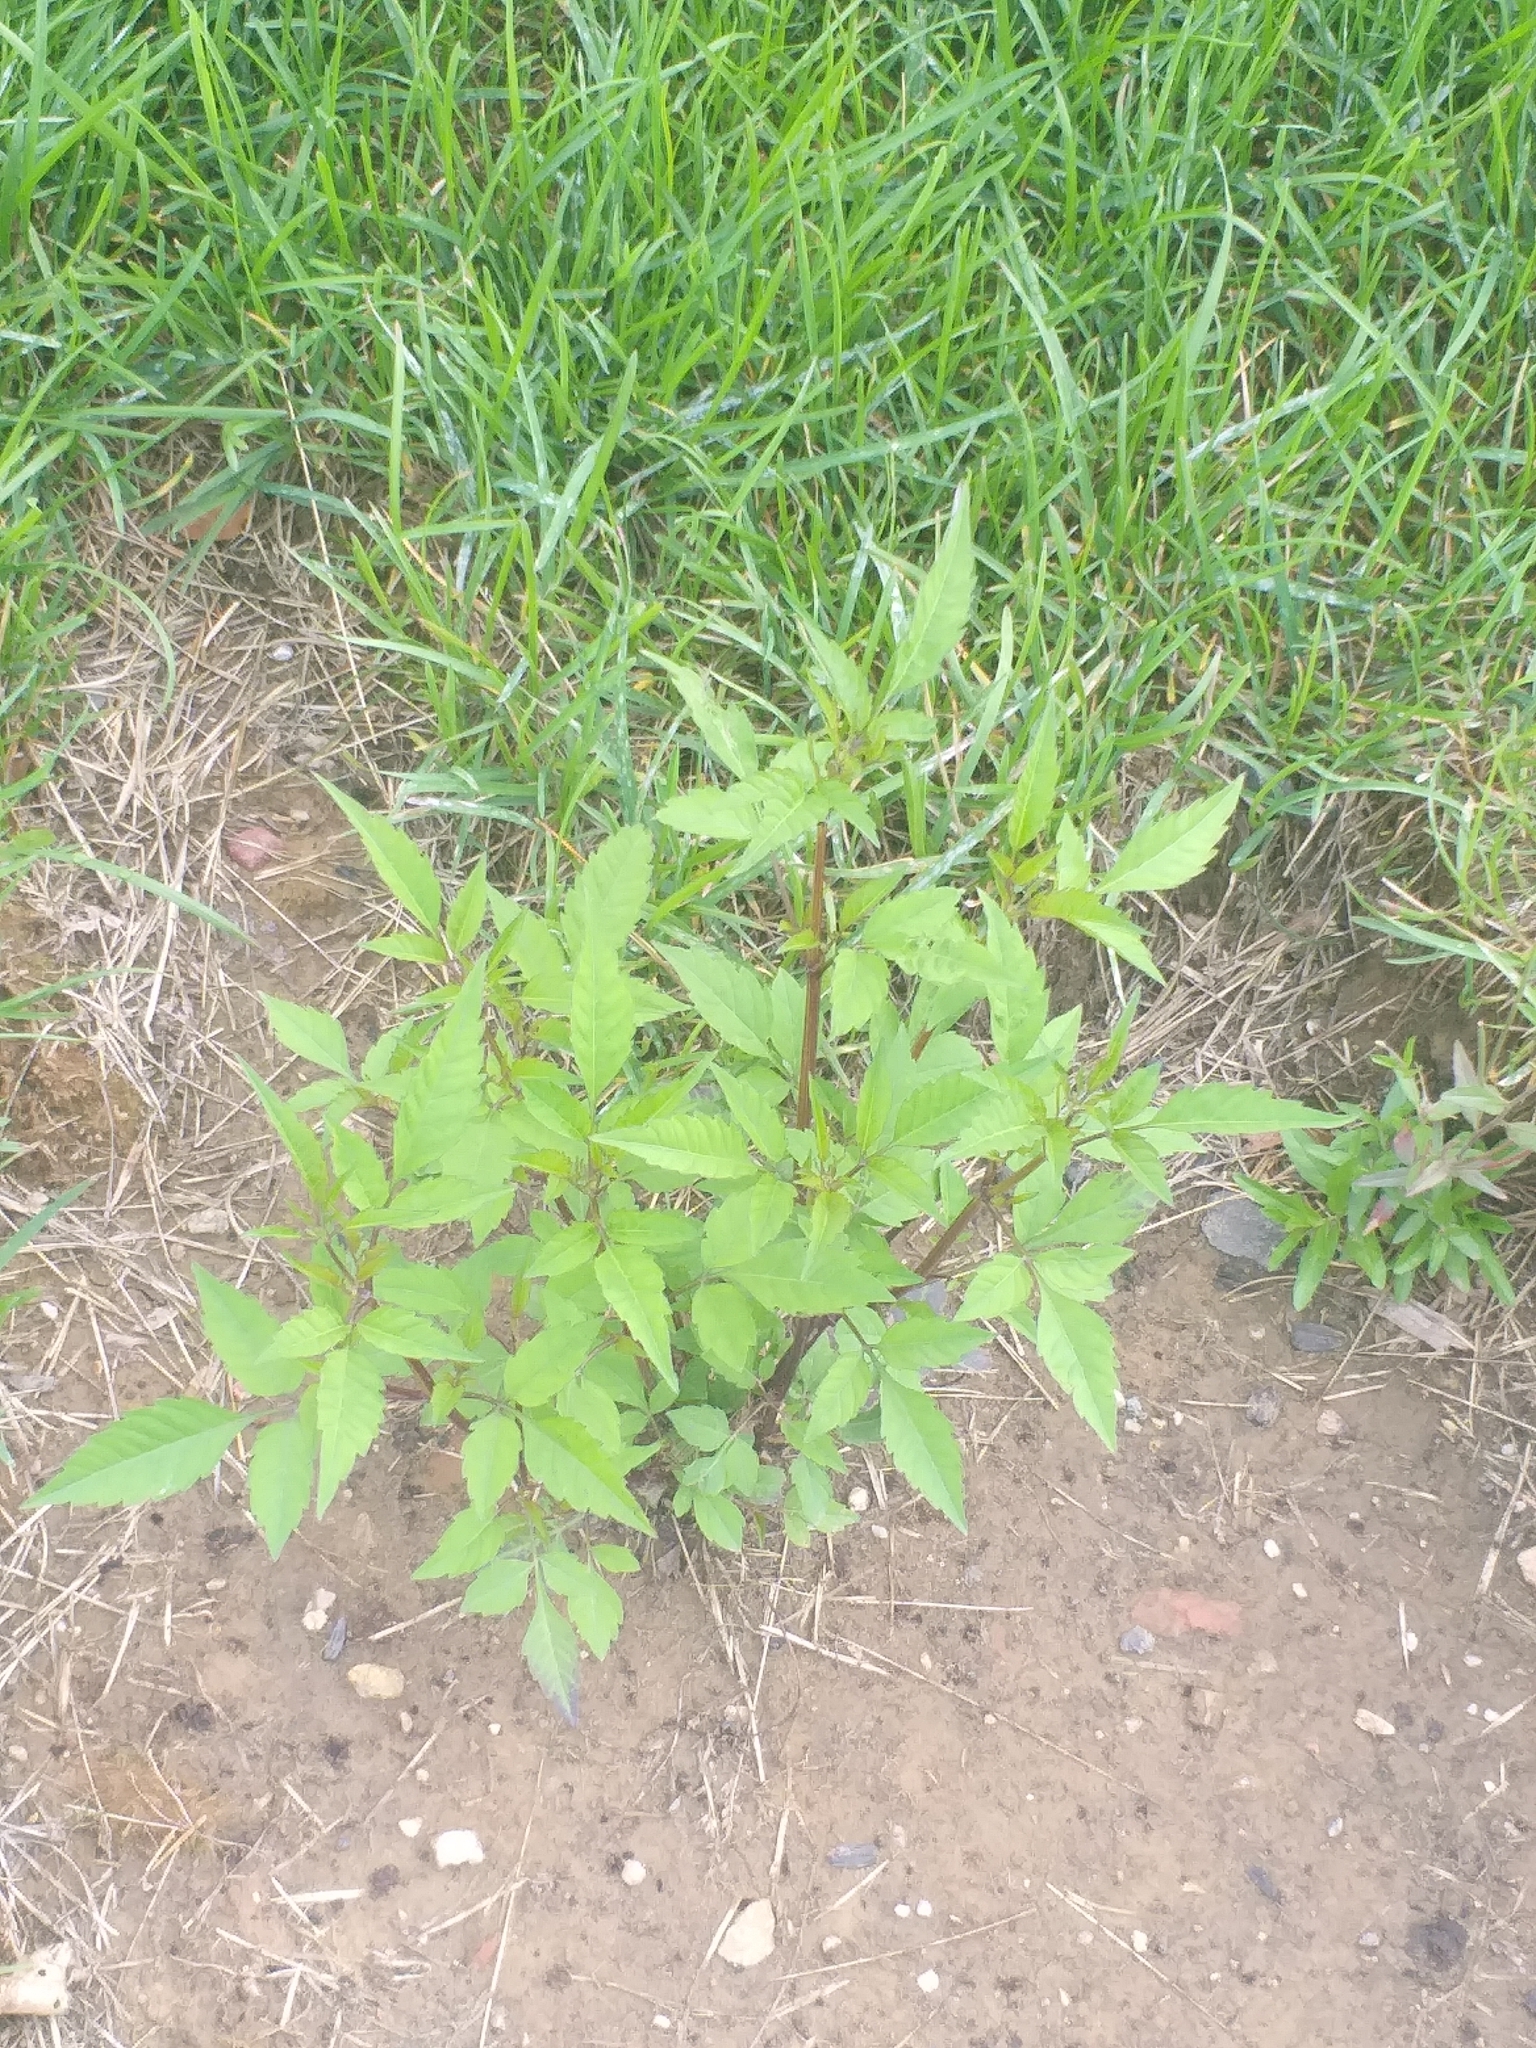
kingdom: Plantae
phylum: Tracheophyta
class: Magnoliopsida
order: Asterales
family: Asteraceae
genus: Bidens
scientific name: Bidens frondosa
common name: Beggarticks
